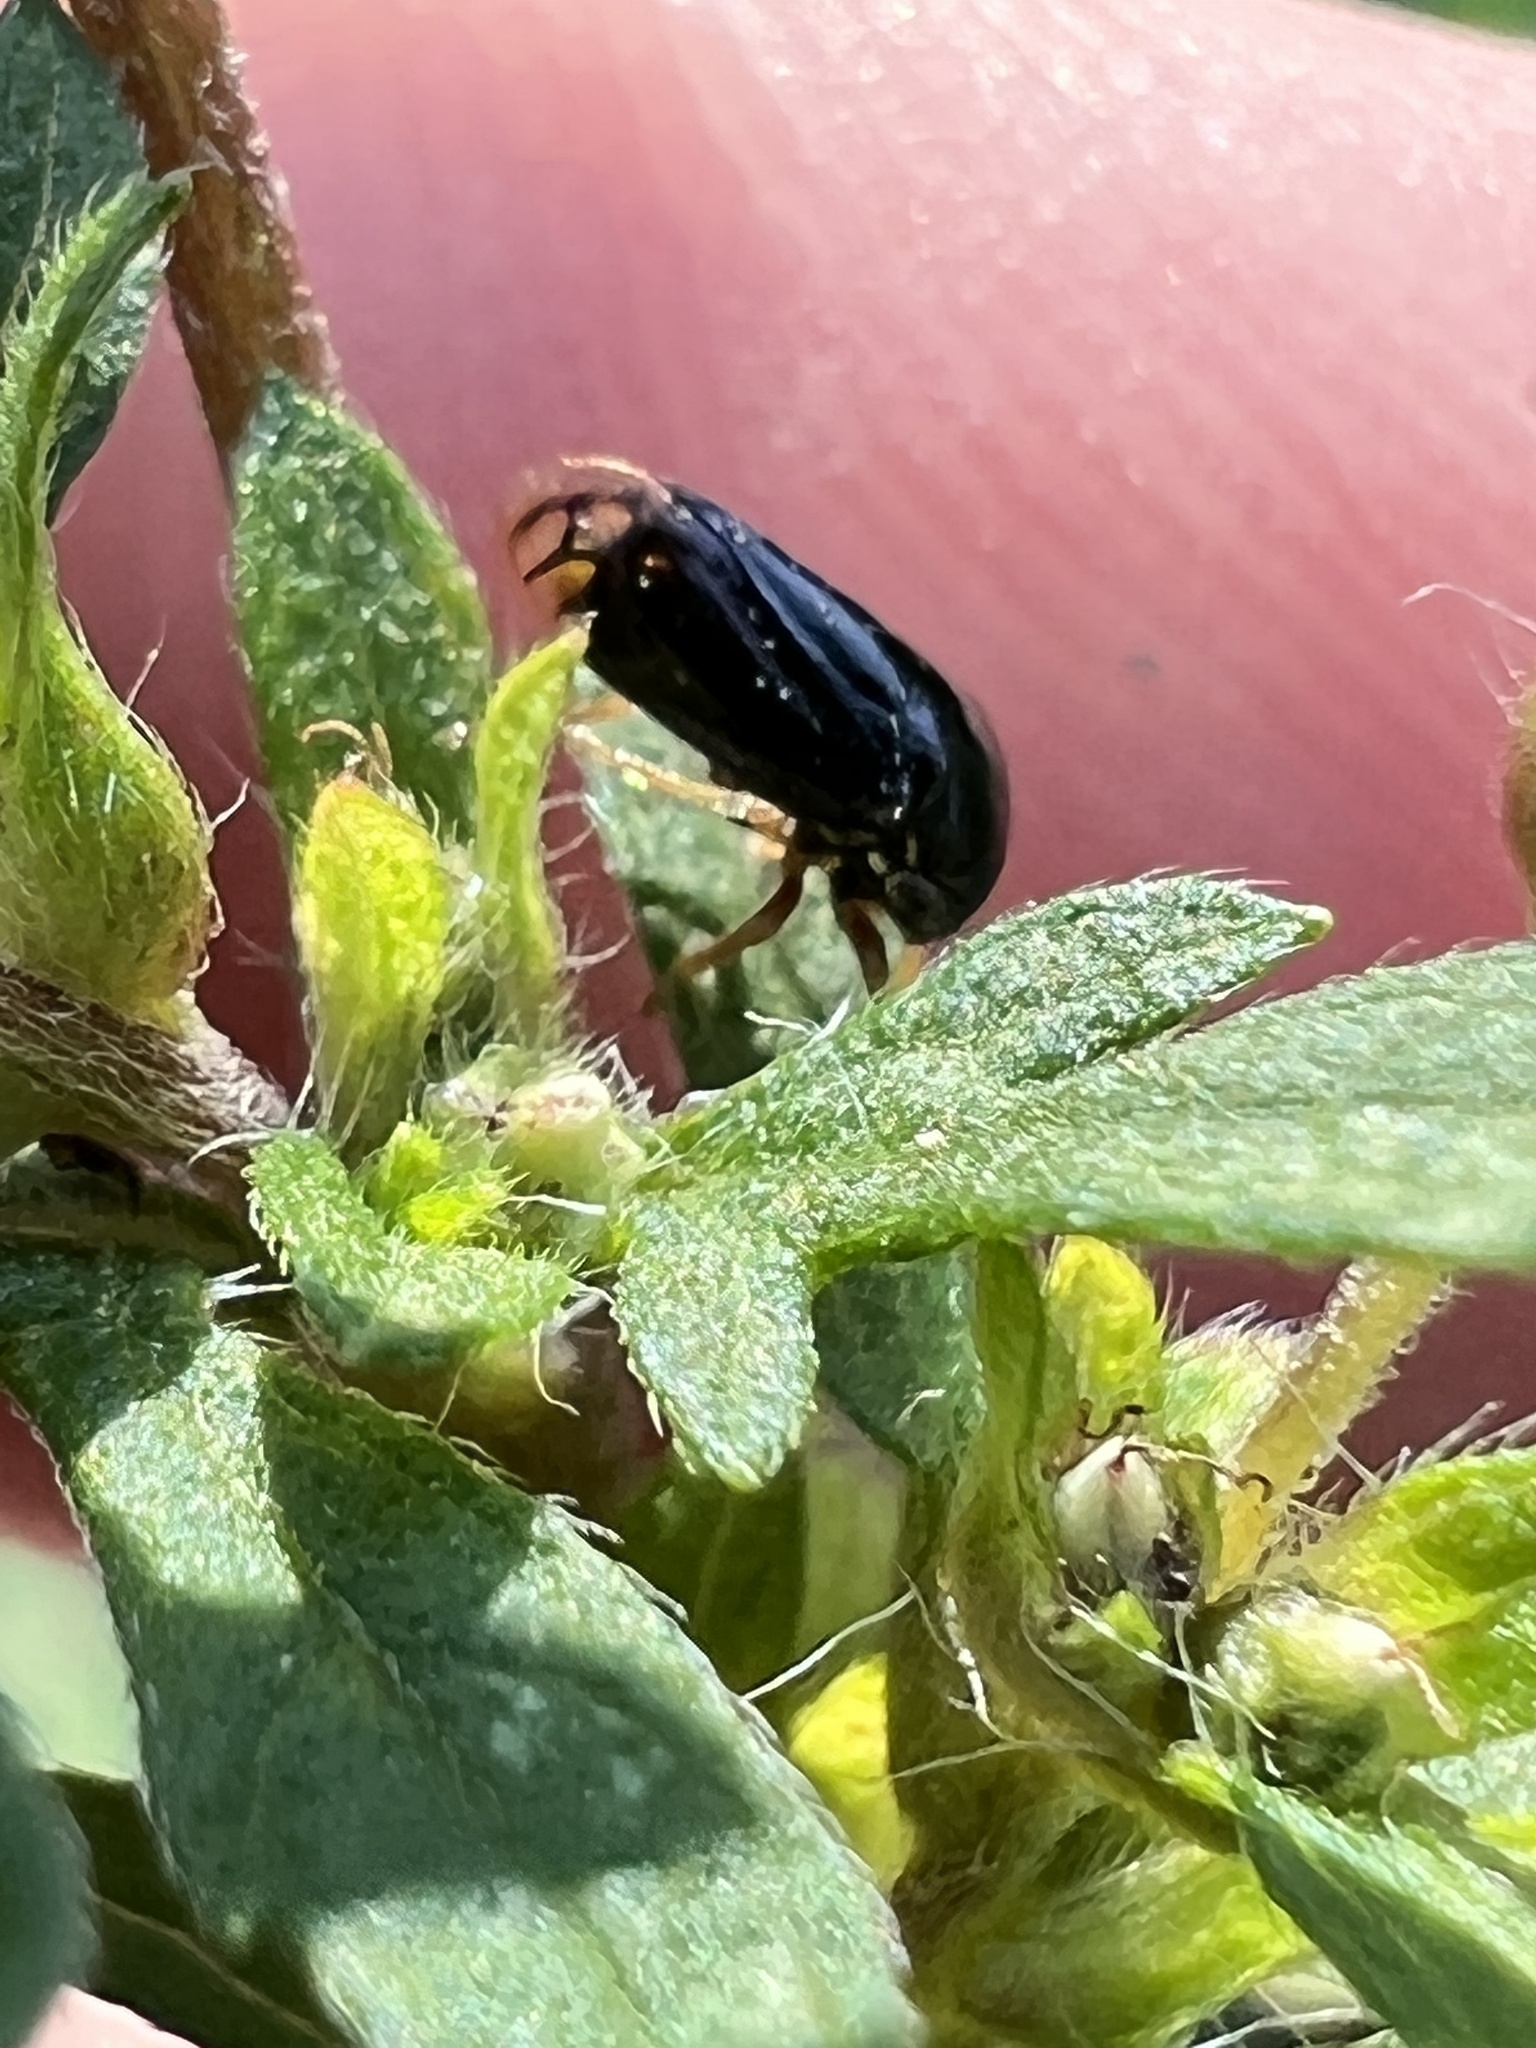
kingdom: Animalia
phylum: Arthropoda
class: Insecta
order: Hemiptera
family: Membracidae
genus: Acutalis
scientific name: Acutalis tartarea
